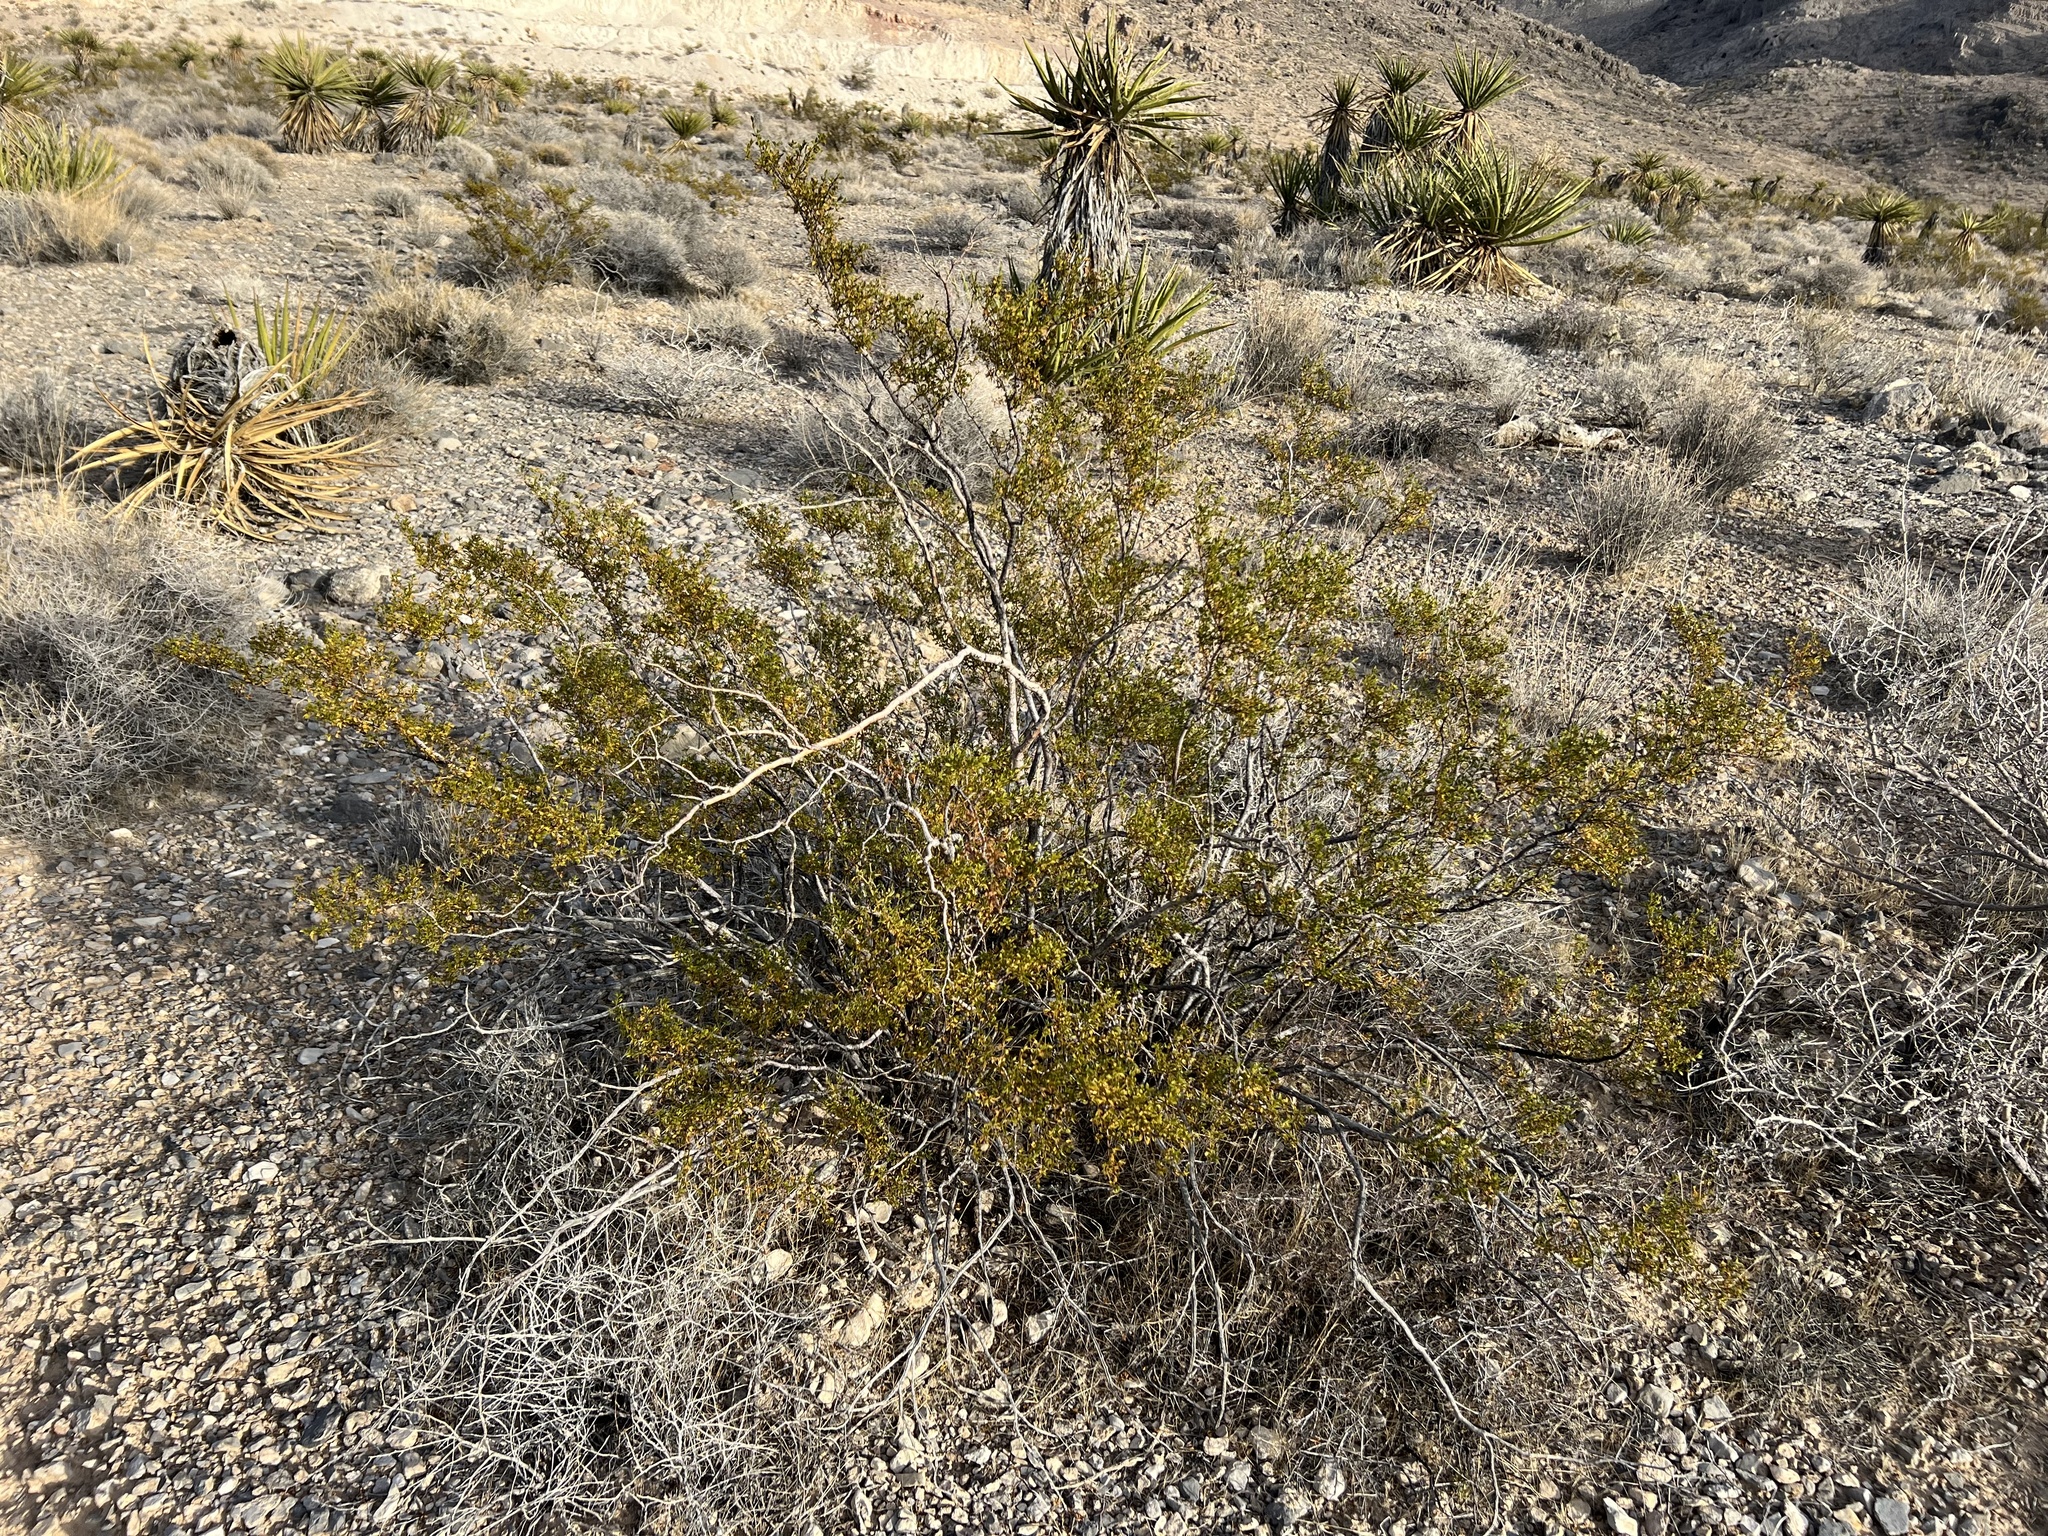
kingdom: Plantae
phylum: Tracheophyta
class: Magnoliopsida
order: Zygophyllales
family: Zygophyllaceae
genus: Larrea
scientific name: Larrea tridentata
